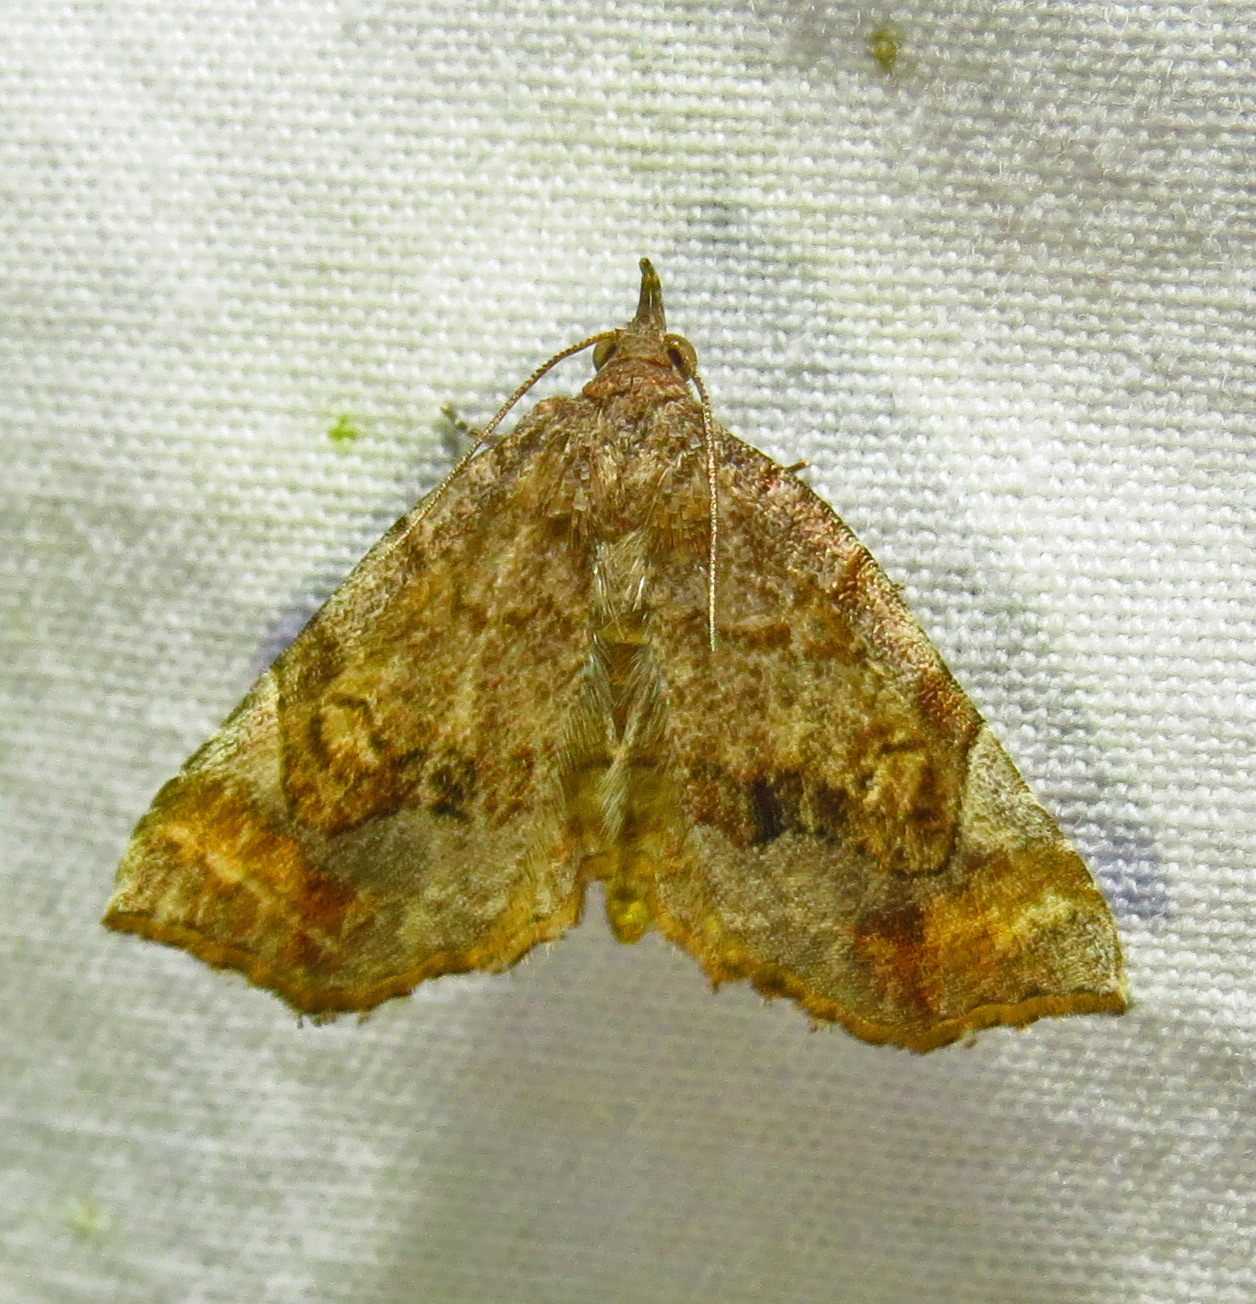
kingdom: Animalia
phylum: Arthropoda
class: Insecta
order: Lepidoptera
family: Erebidae
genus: Pangrapta
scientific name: Pangrapta decoralis
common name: Decorated owlet
